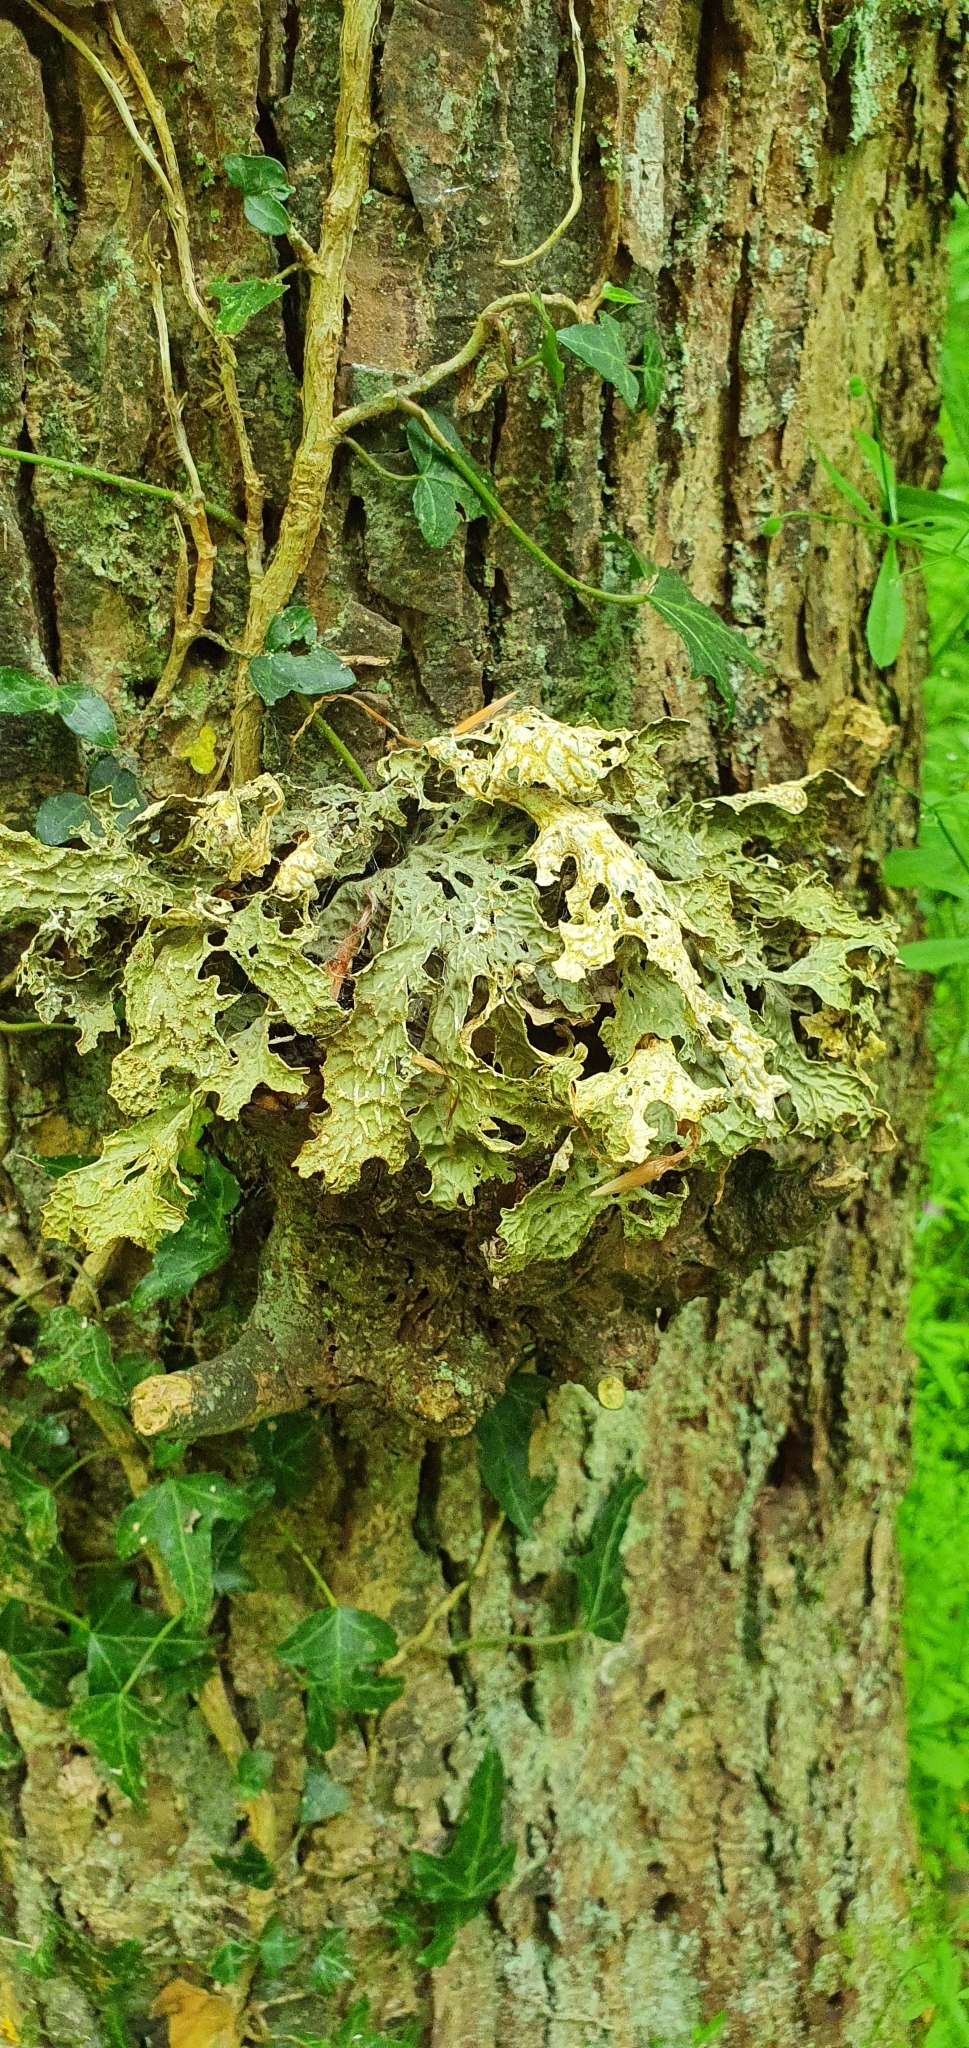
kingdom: Fungi
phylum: Ascomycota
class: Lecanoromycetes
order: Peltigerales
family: Lobariaceae
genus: Lobaria
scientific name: Lobaria pulmonaria
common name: Lungwort
